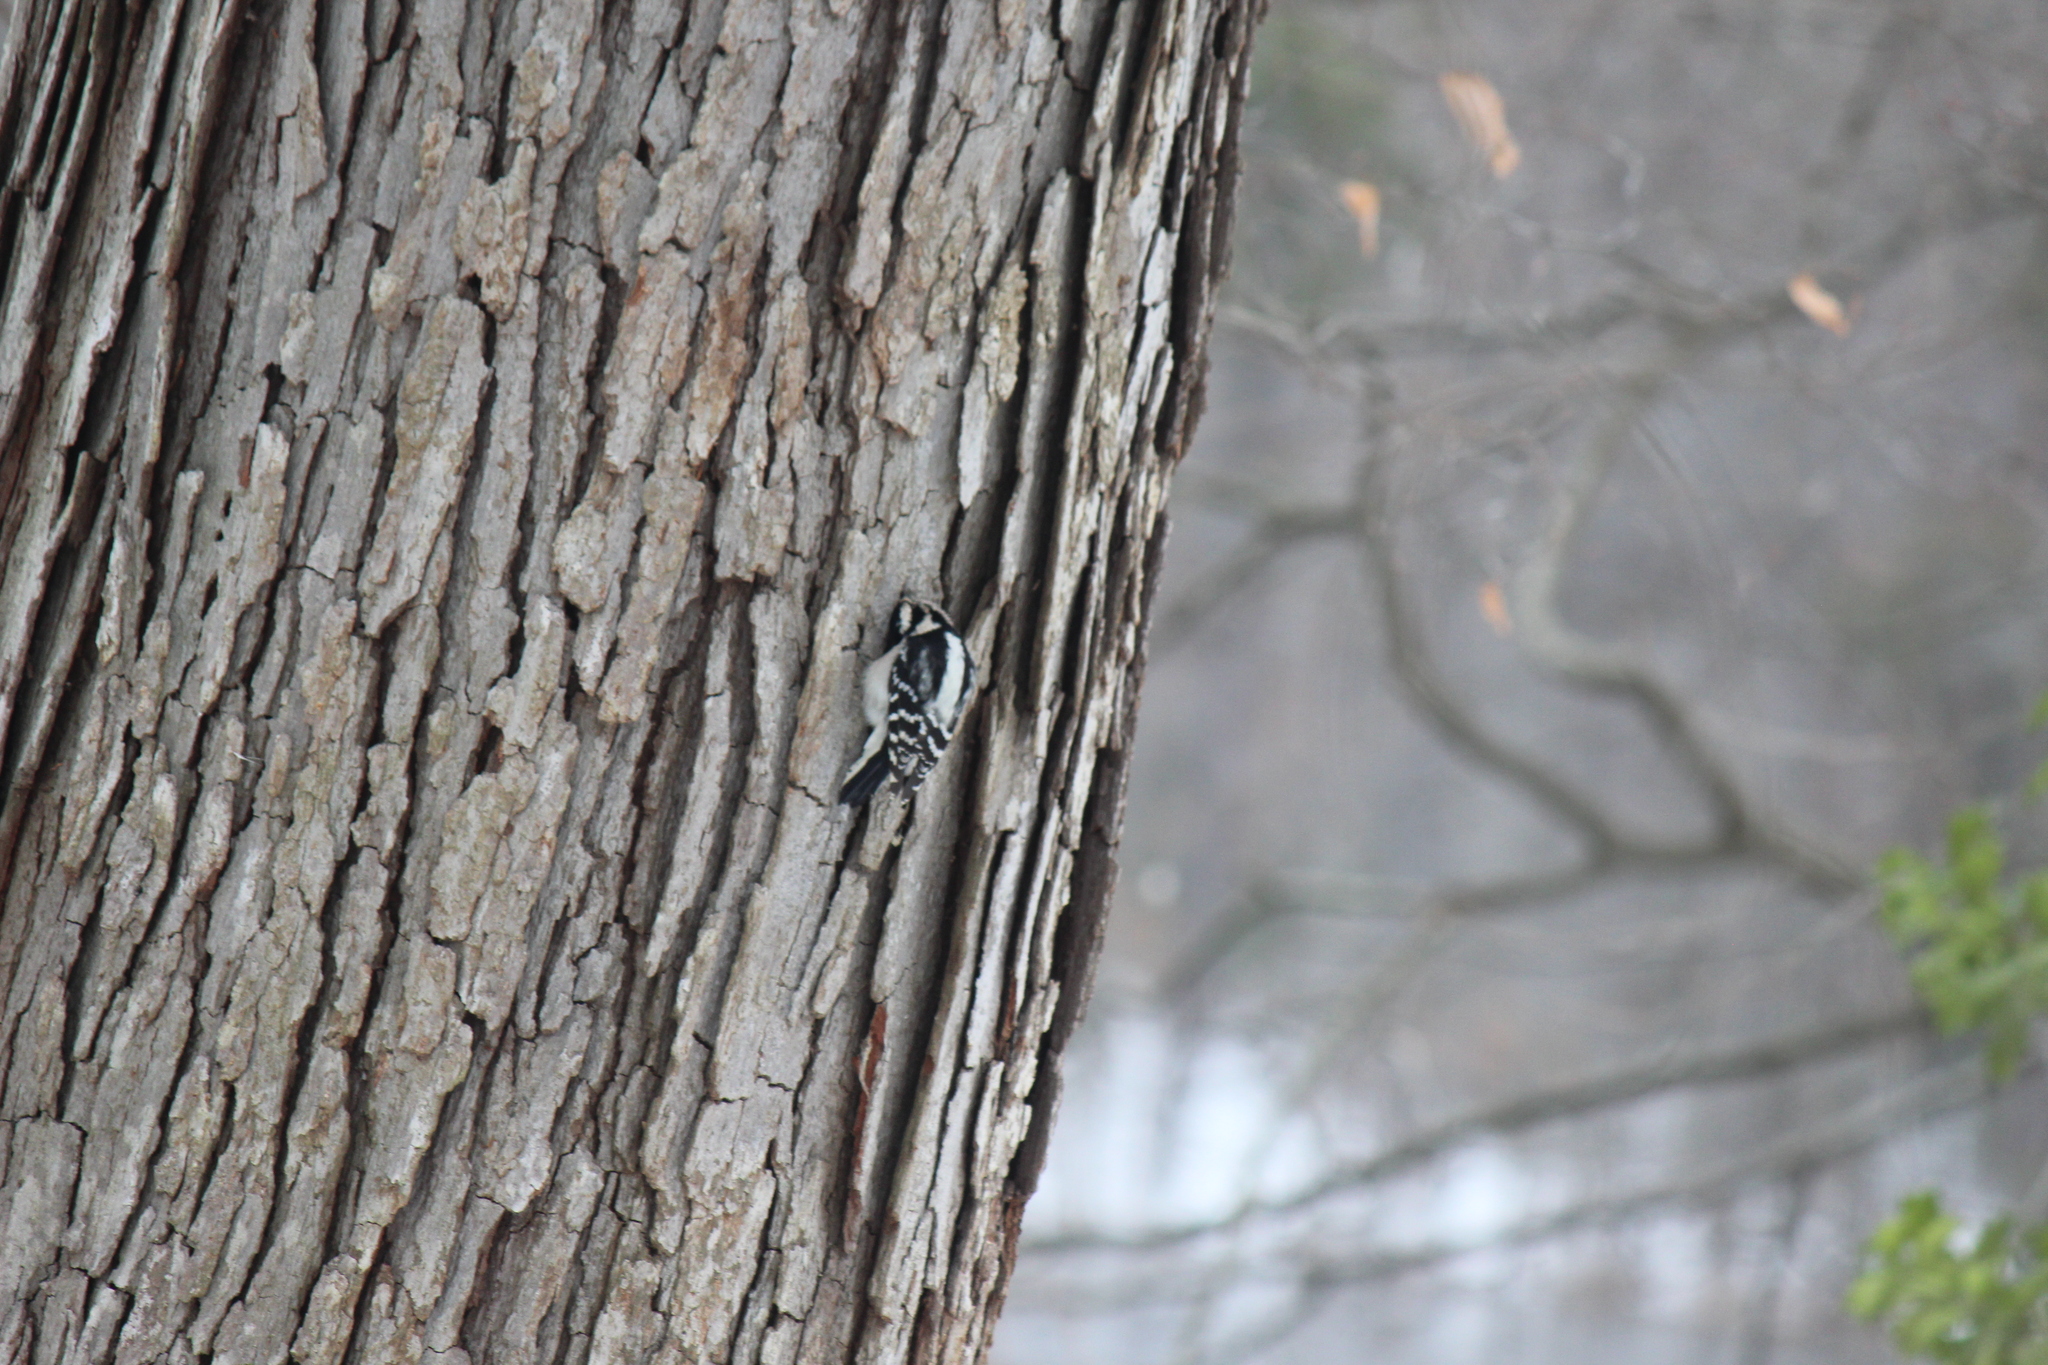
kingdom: Animalia
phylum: Chordata
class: Aves
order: Piciformes
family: Picidae
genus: Dryobates
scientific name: Dryobates pubescens
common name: Downy woodpecker
